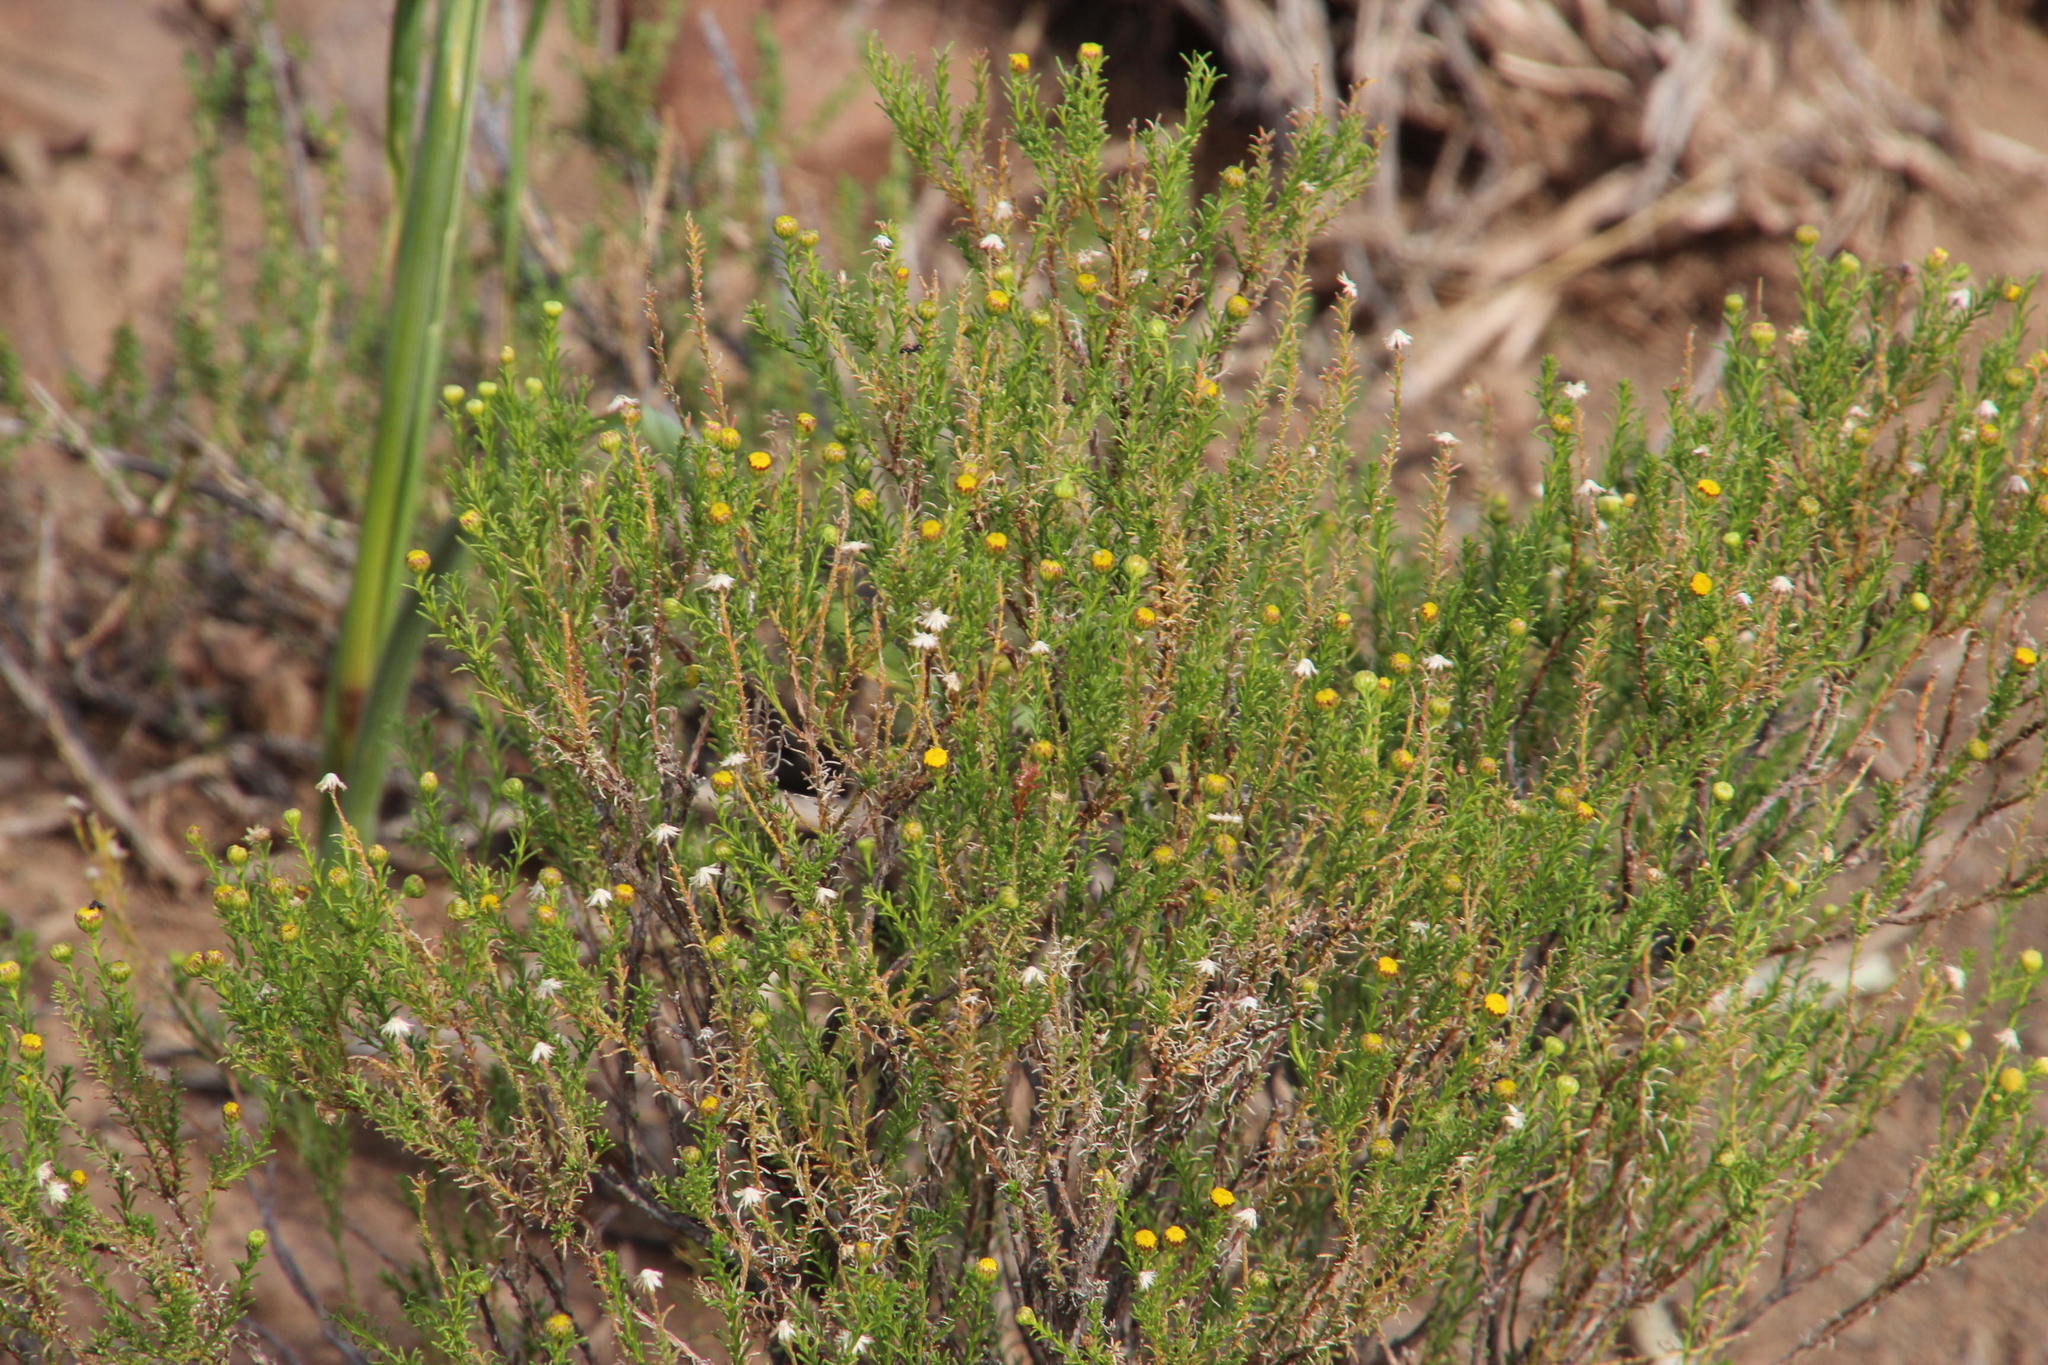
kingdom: Plantae
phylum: Tracheophyta
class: Magnoliopsida
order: Asterales
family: Asteraceae
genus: Chrysocoma
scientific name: Chrysocoma ciliata
